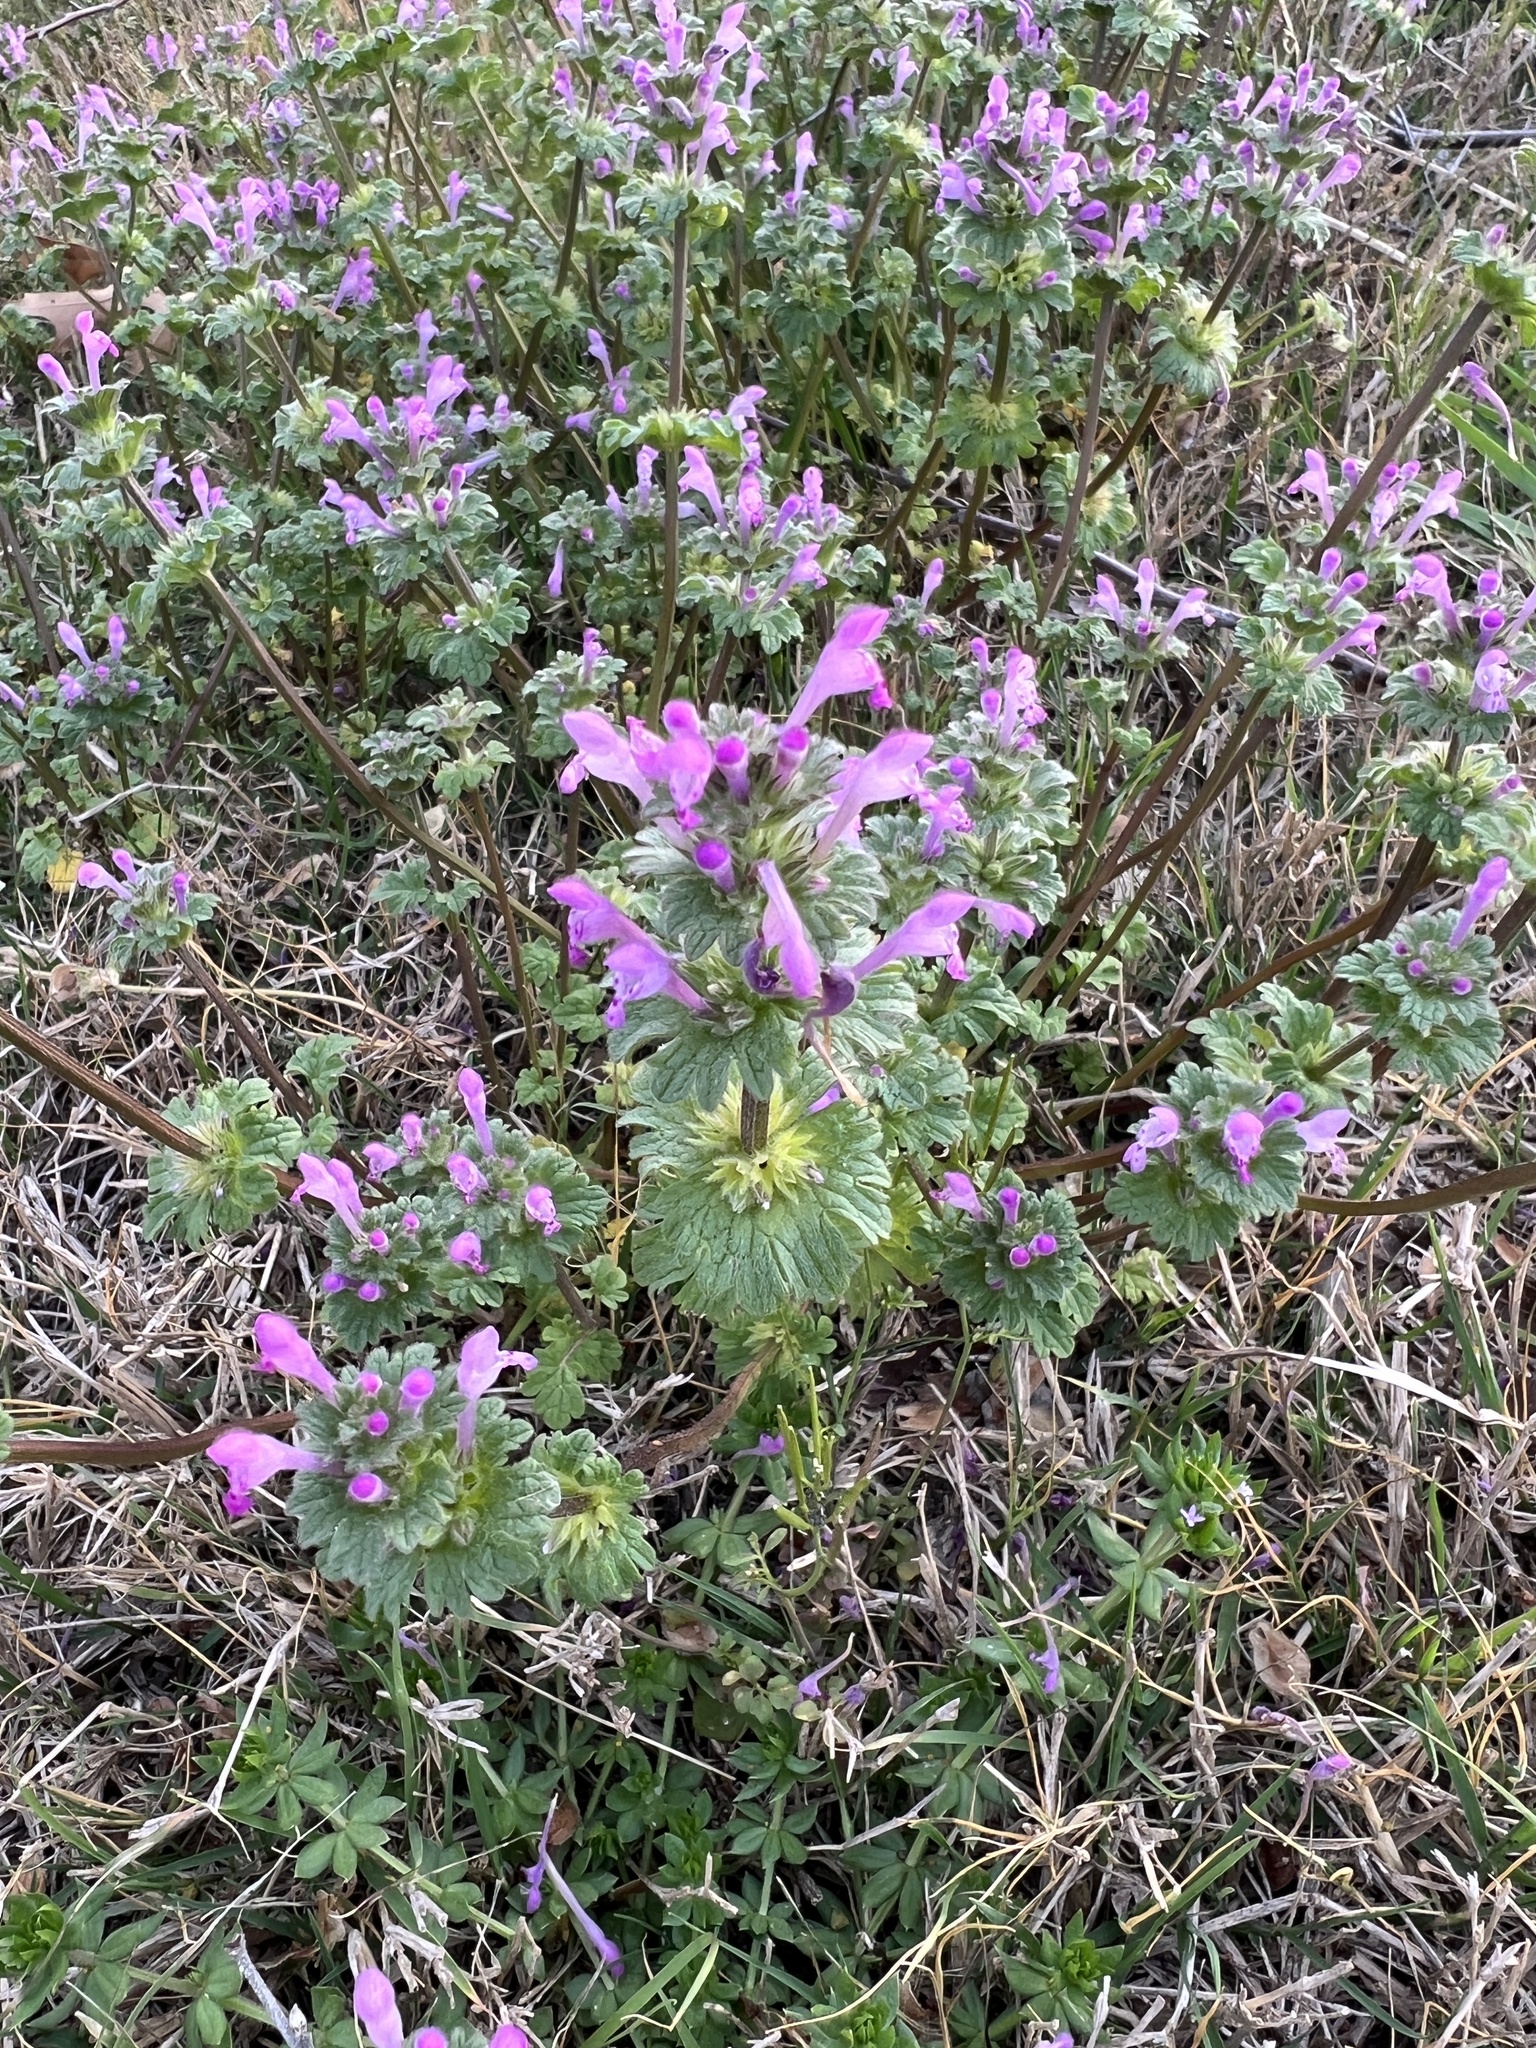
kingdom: Plantae
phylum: Tracheophyta
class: Magnoliopsida
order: Lamiales
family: Lamiaceae
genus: Lamium
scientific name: Lamium amplexicaule
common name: Henbit dead-nettle
